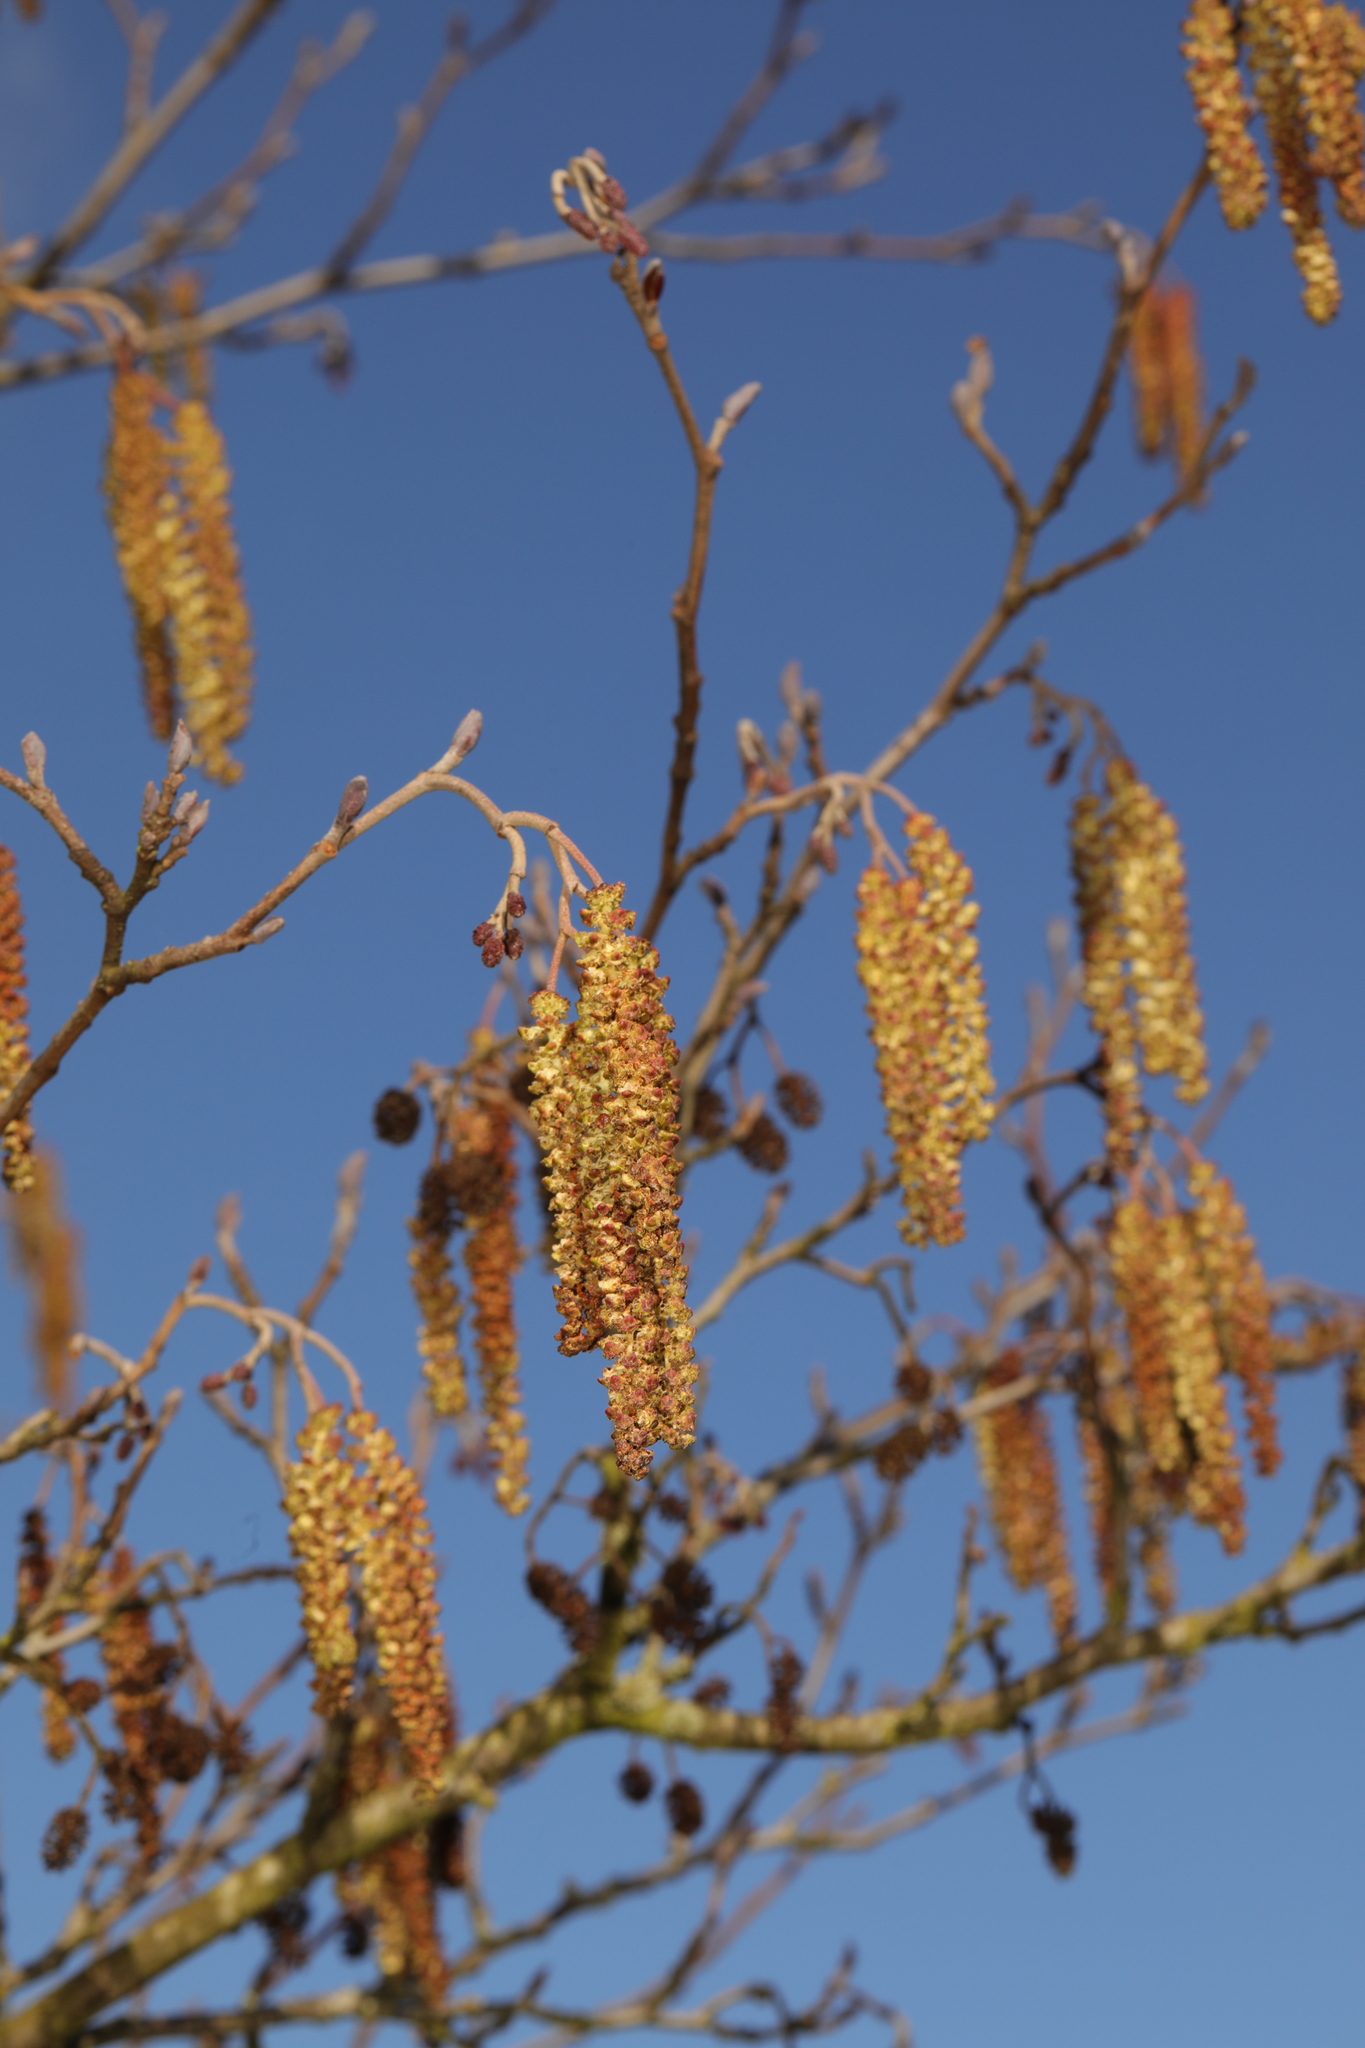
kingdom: Plantae
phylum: Tracheophyta
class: Magnoliopsida
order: Fagales
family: Betulaceae
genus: Alnus
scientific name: Alnus glutinosa
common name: Black alder
